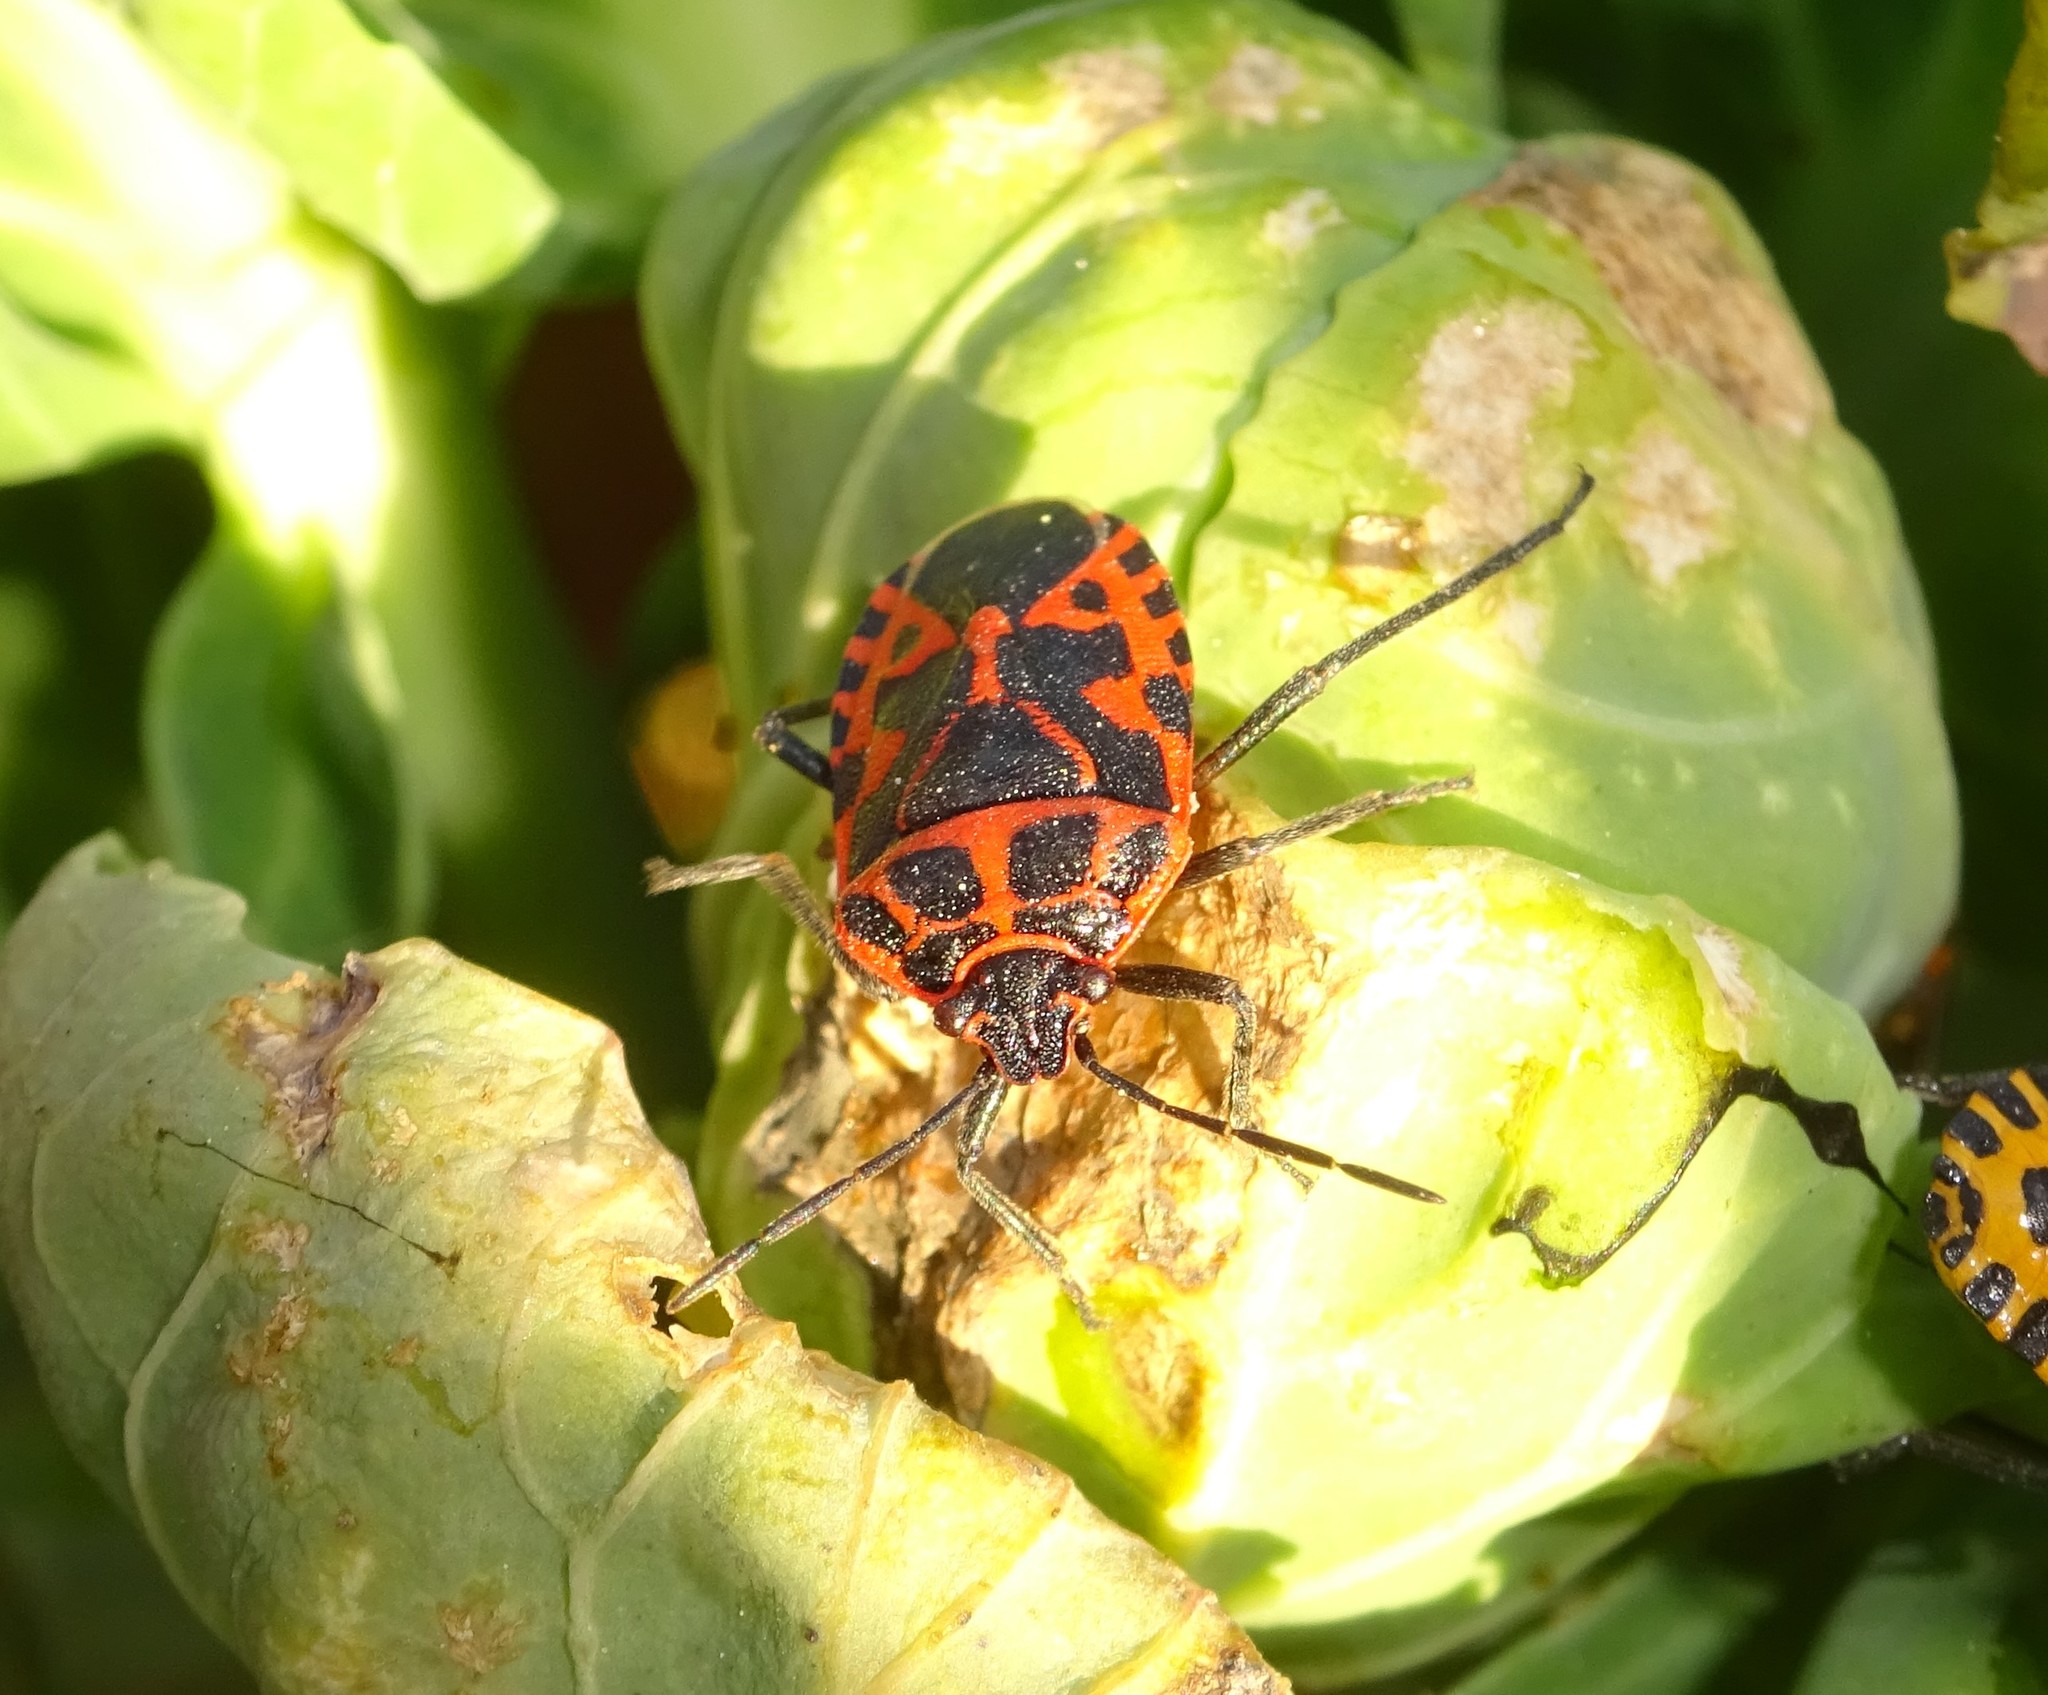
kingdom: Animalia
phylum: Arthropoda
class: Insecta
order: Hemiptera
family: Pentatomidae
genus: Eurydema
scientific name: Eurydema ventralis
